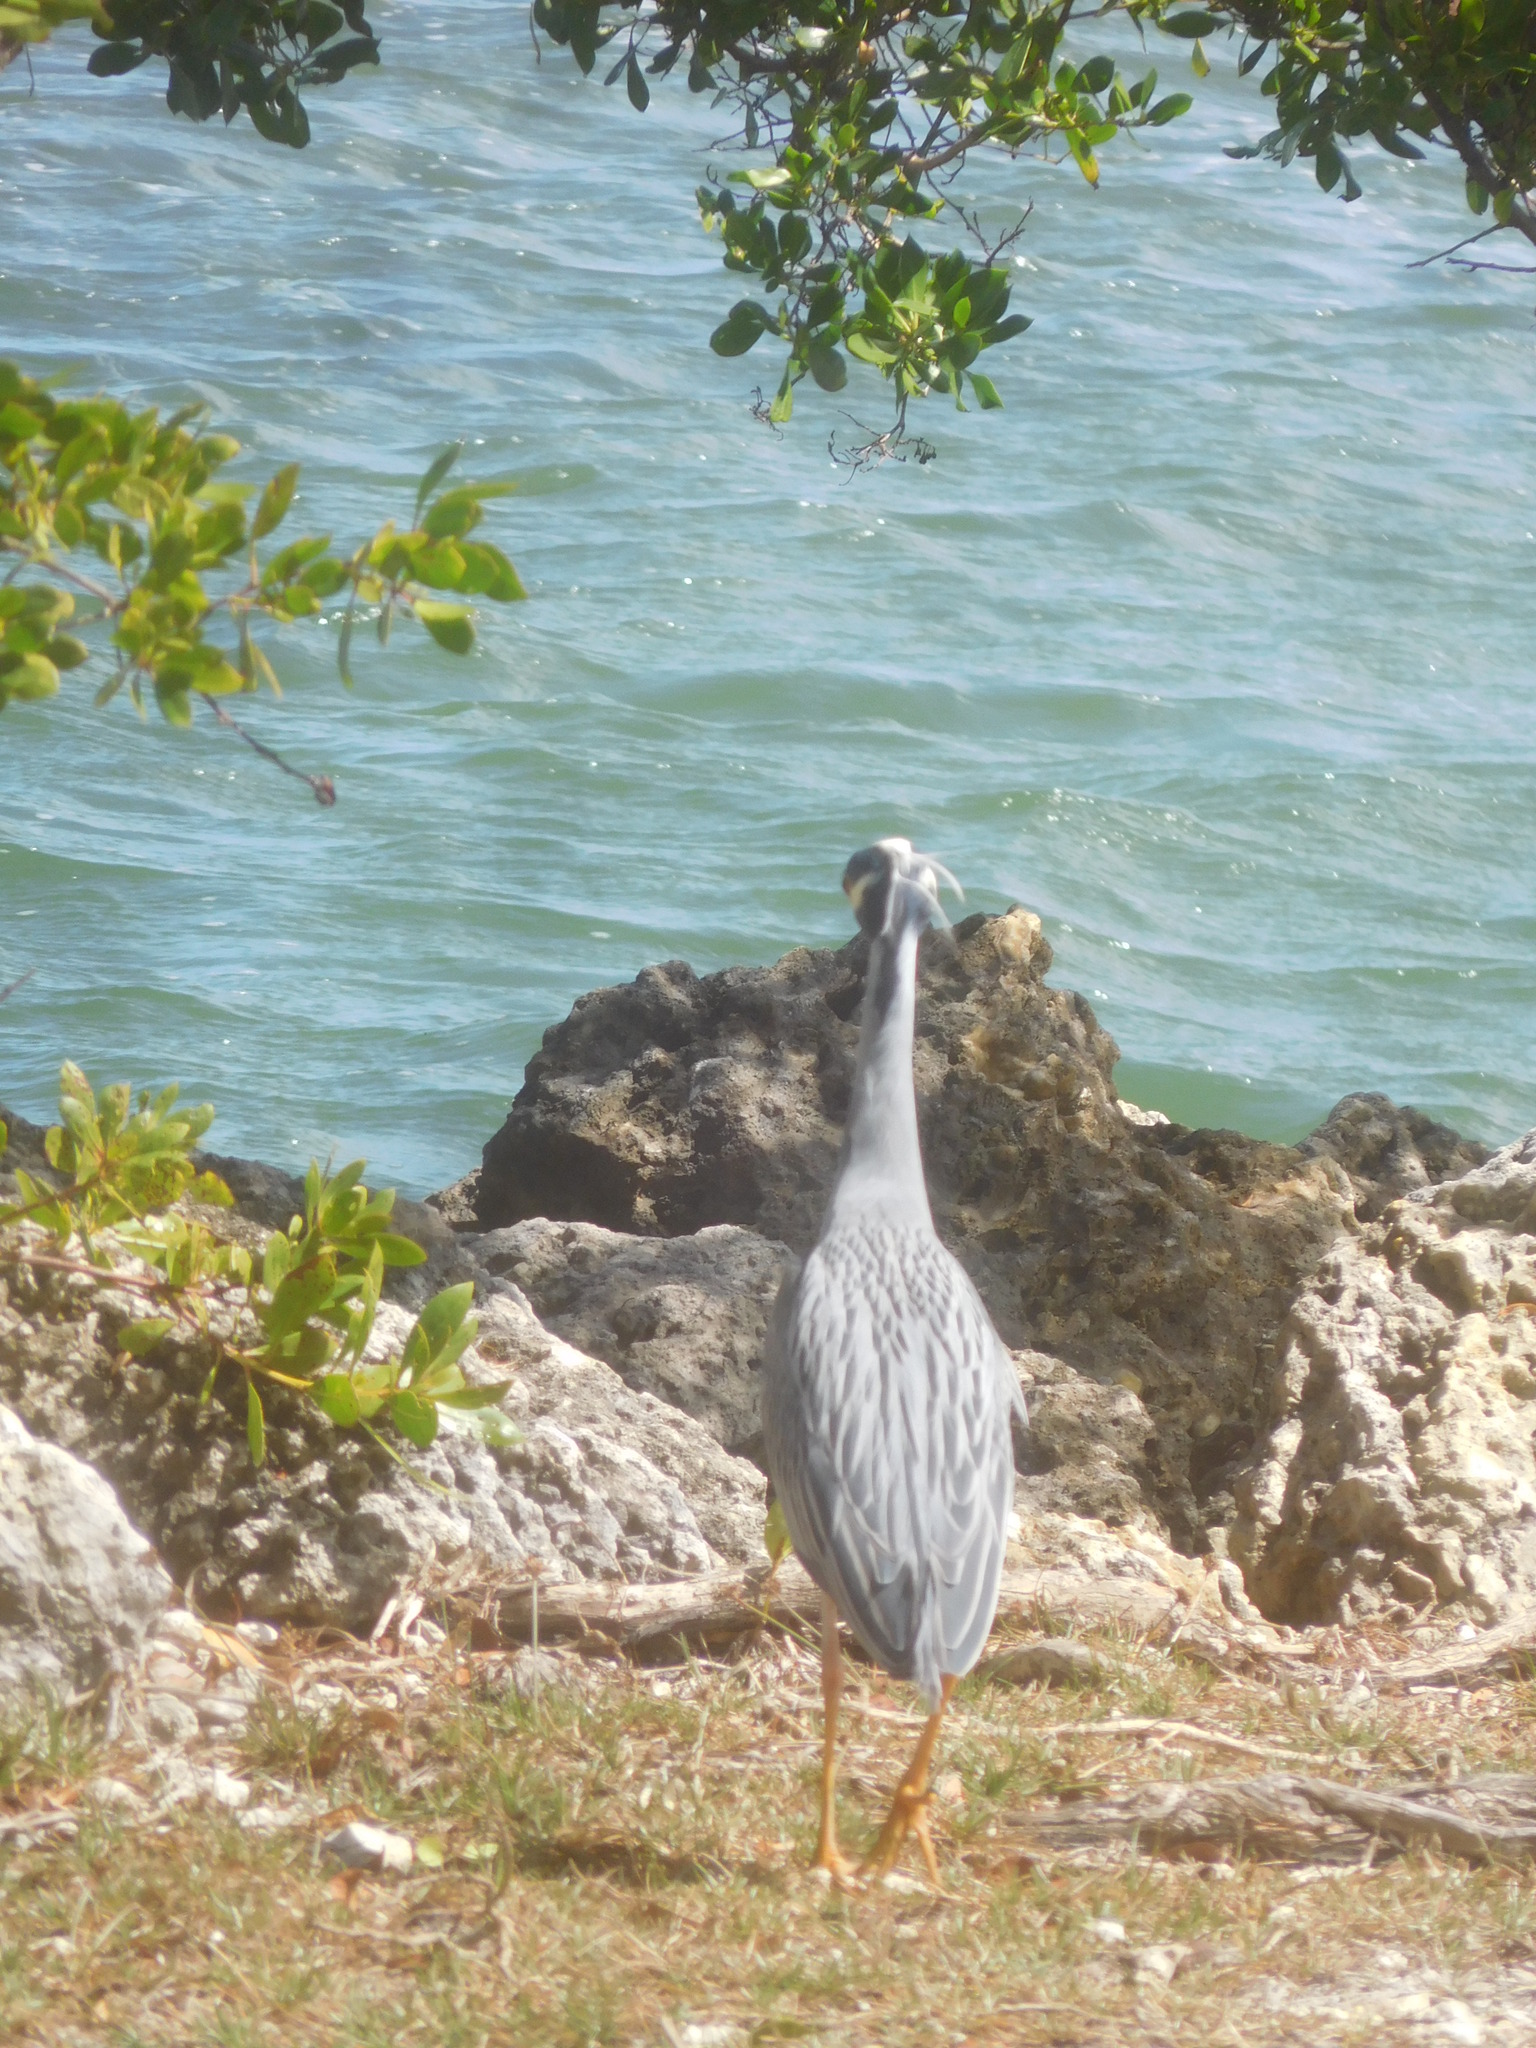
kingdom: Animalia
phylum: Chordata
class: Aves
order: Pelecaniformes
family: Ardeidae
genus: Nyctanassa
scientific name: Nyctanassa violacea
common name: Yellow-crowned night heron
